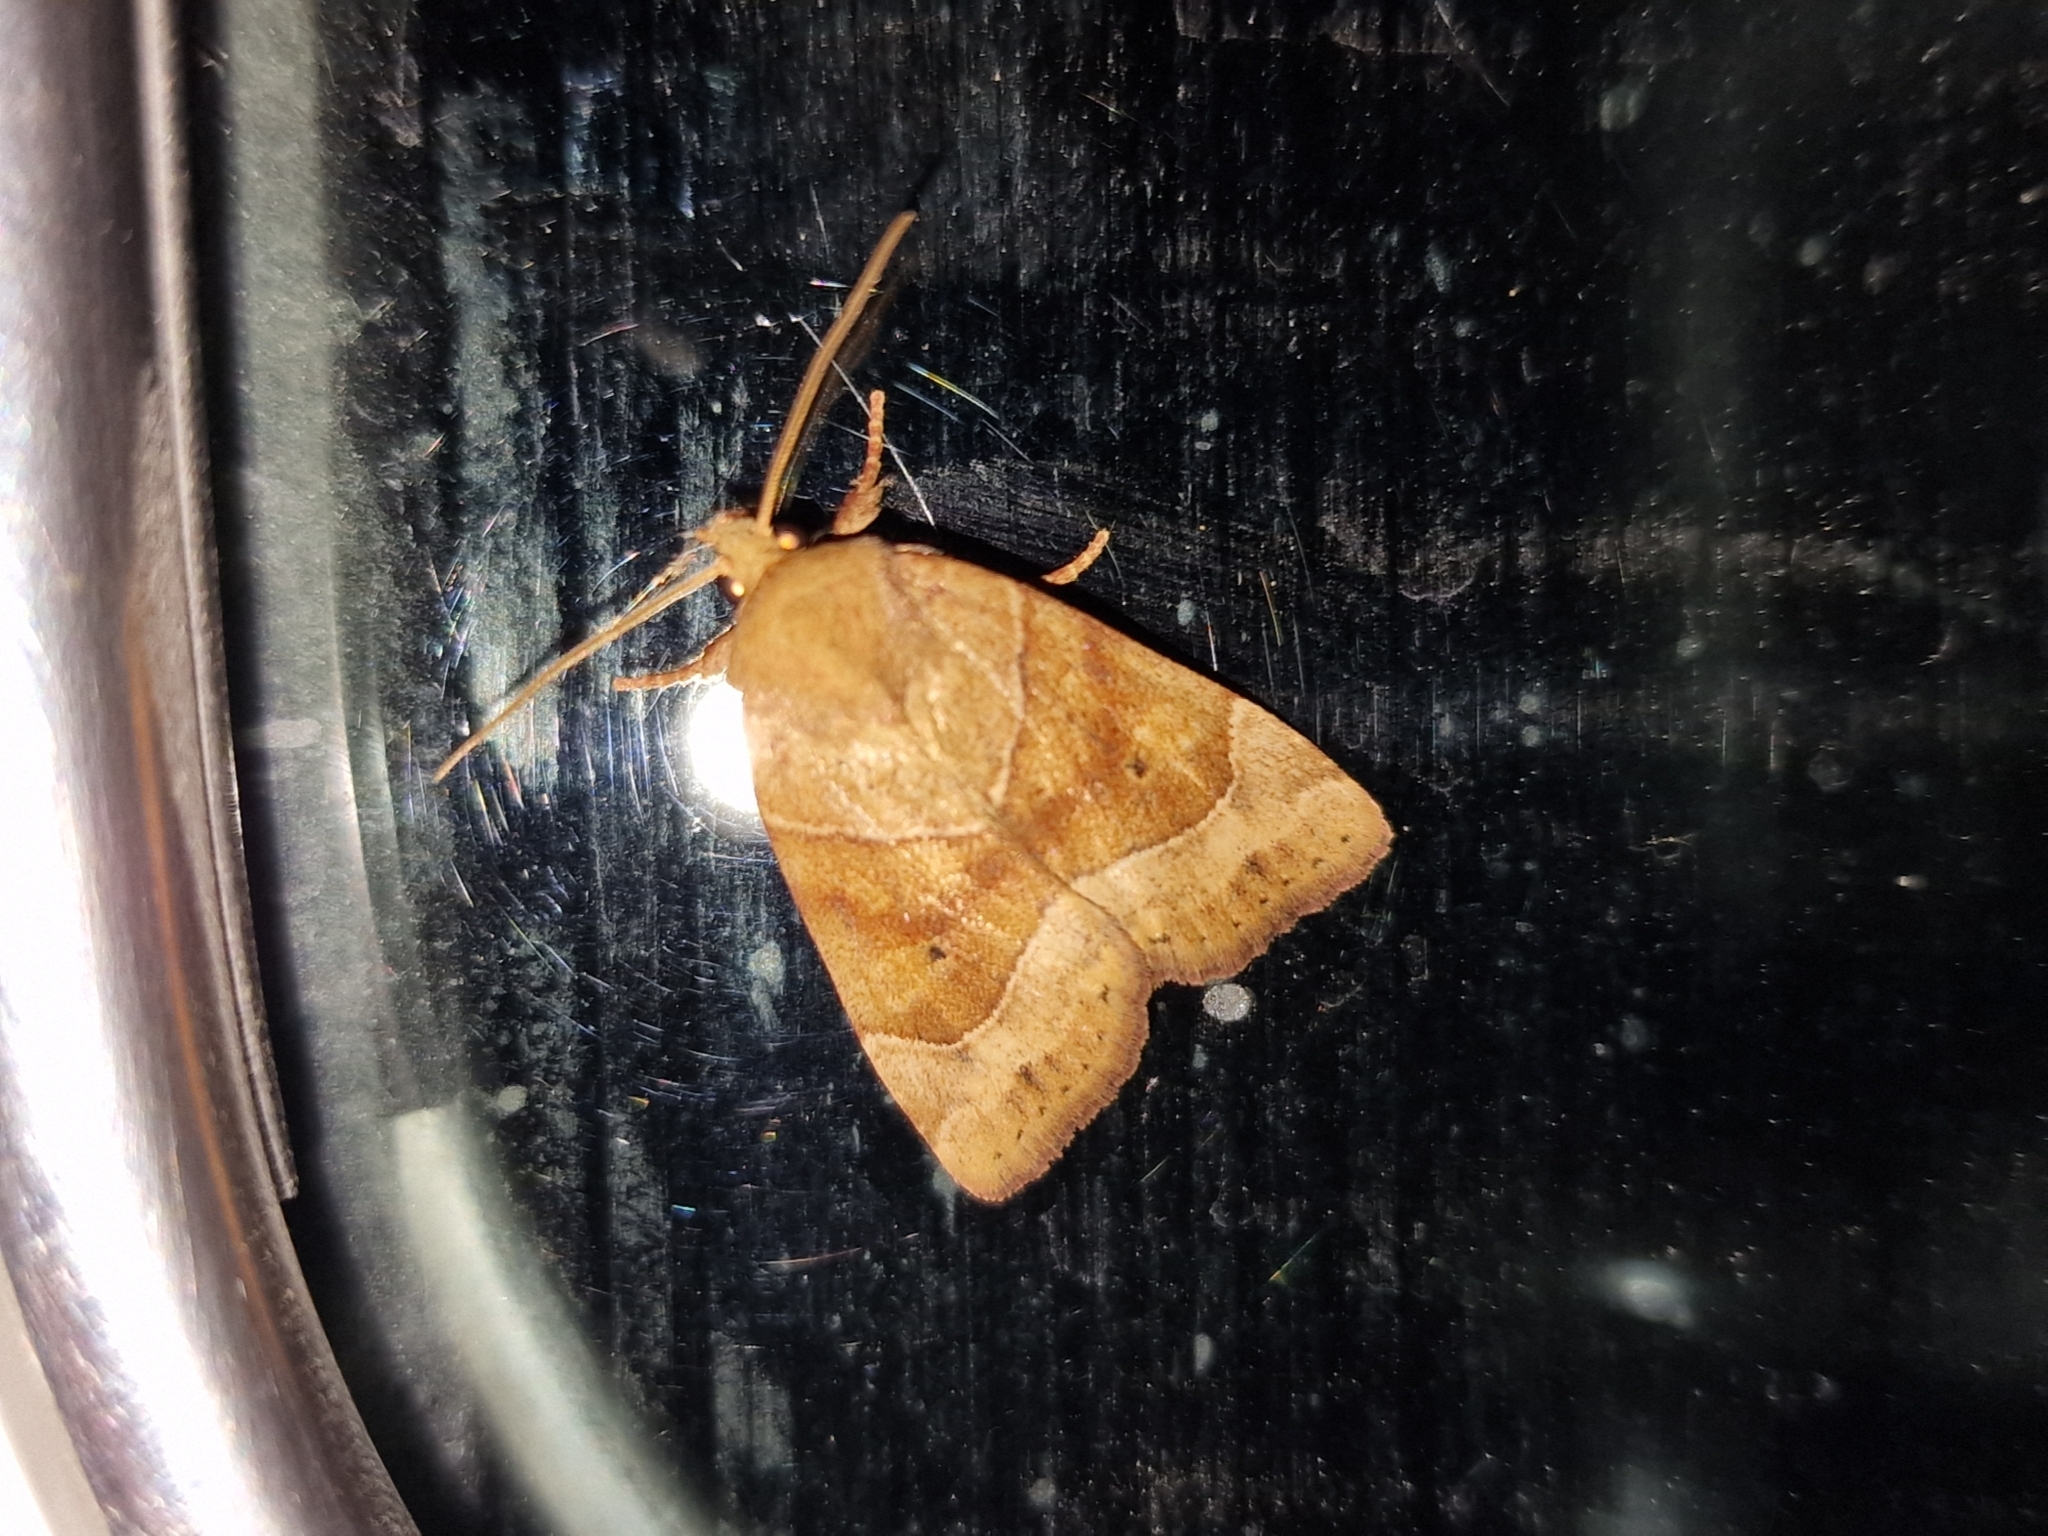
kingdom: Animalia
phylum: Arthropoda
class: Insecta
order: Lepidoptera
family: Noctuidae
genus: Cosmia
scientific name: Cosmia trapezina
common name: Dun-bar
